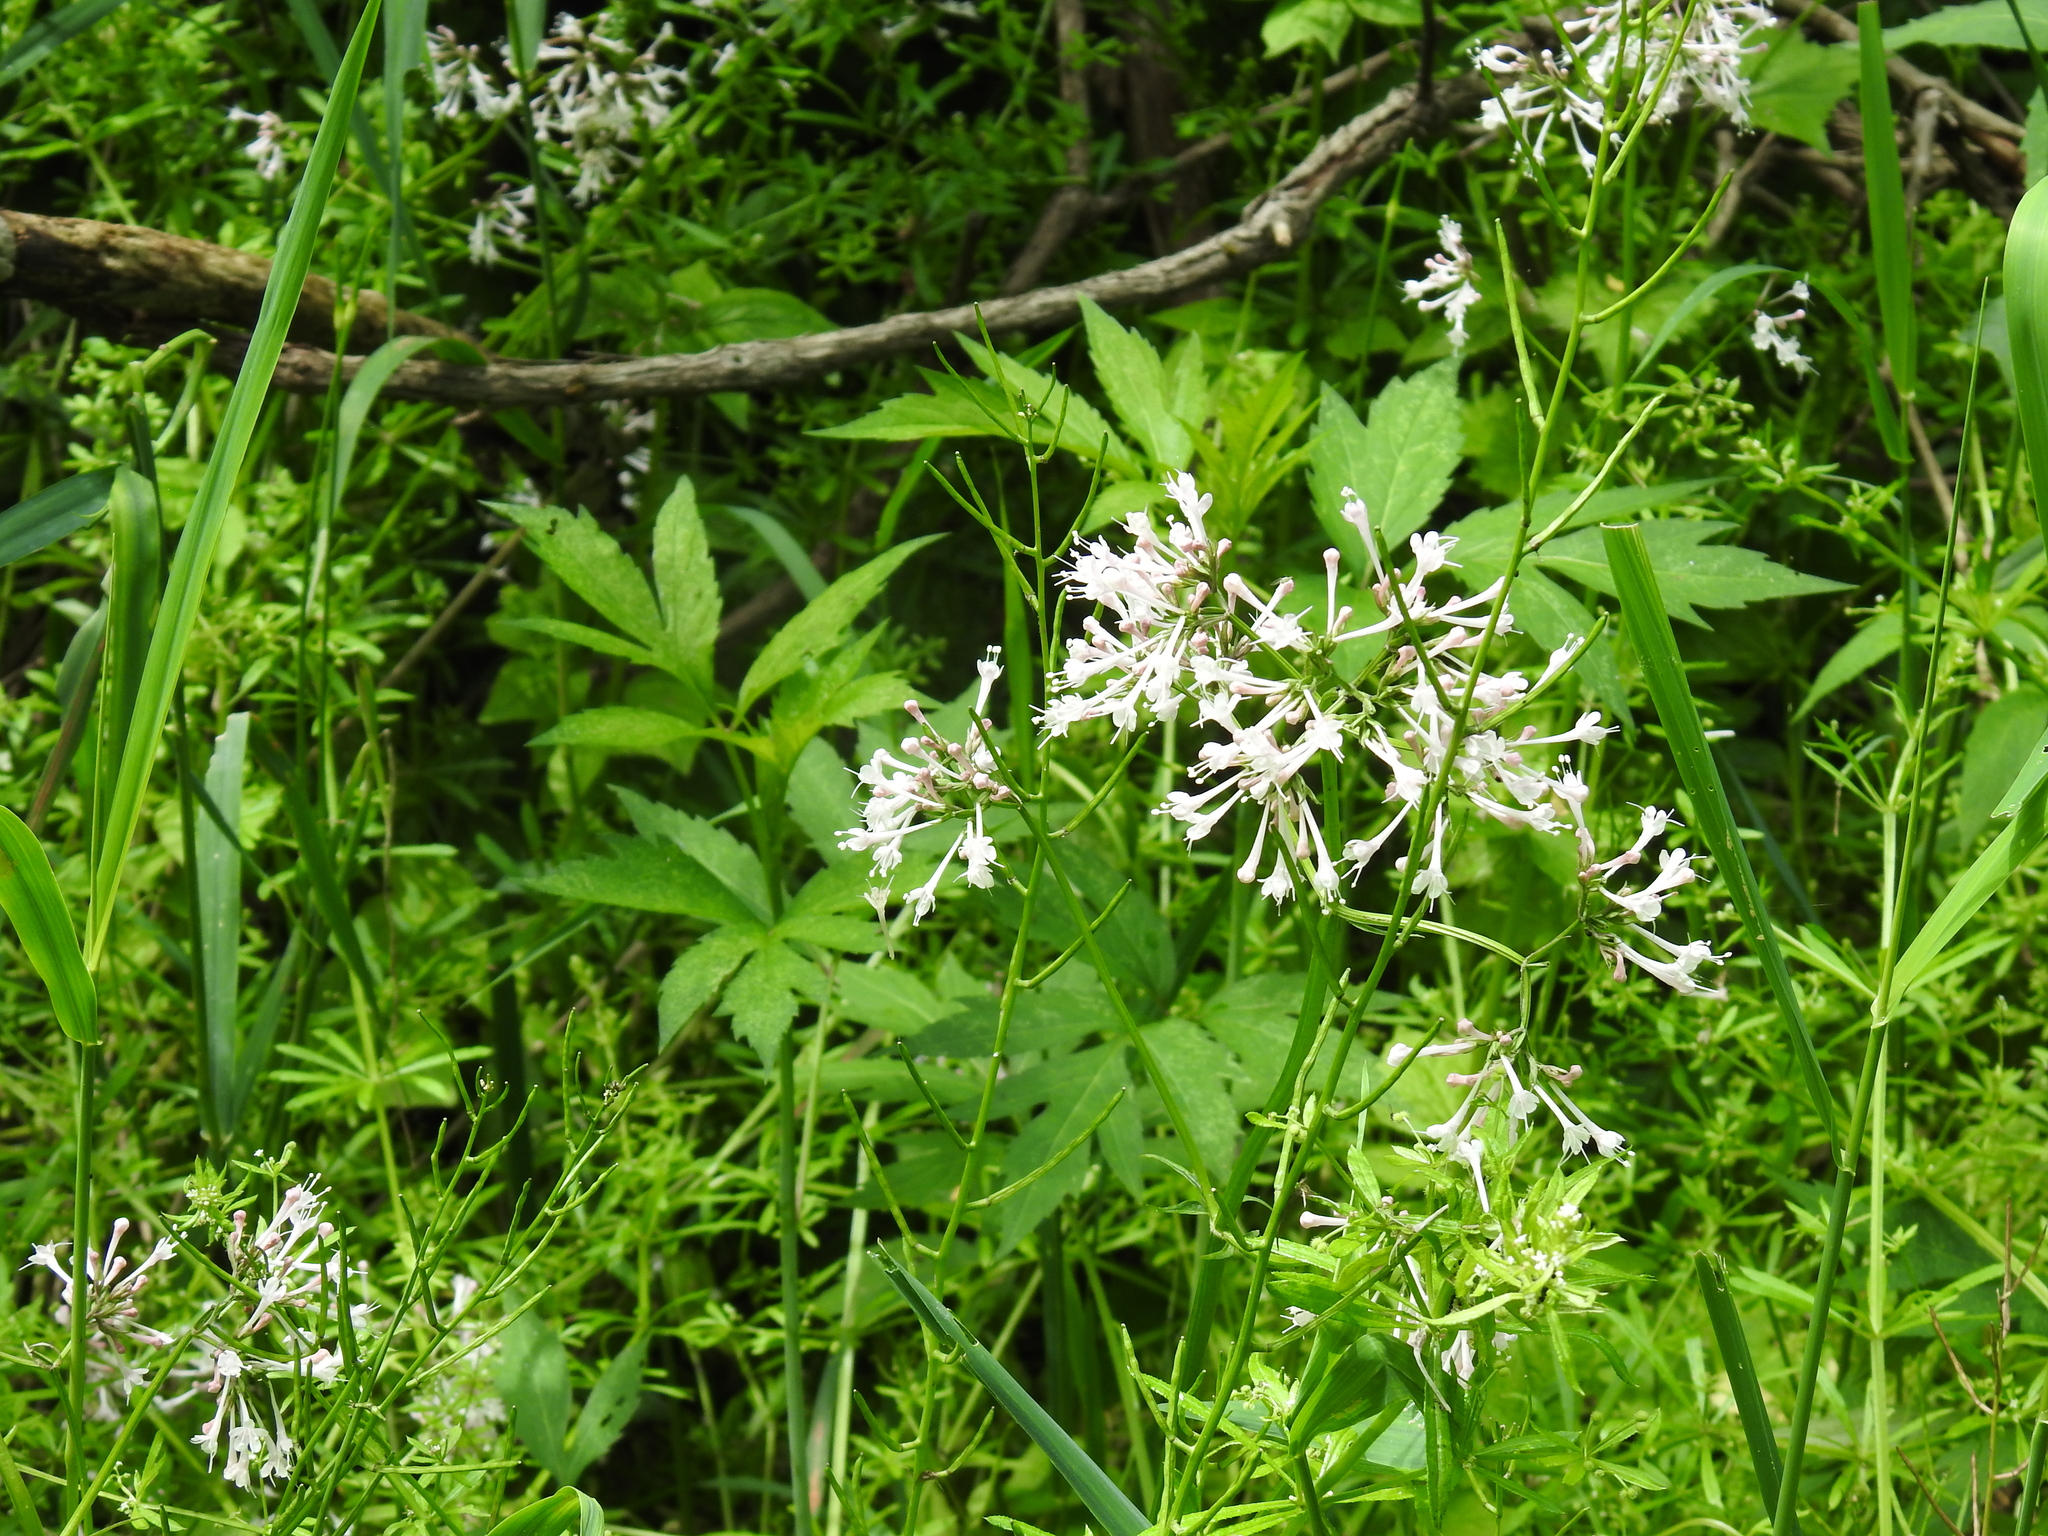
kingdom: Plantae
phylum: Tracheophyta
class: Magnoliopsida
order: Dipsacales
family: Caprifoliaceae
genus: Valeriana
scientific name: Valeriana pauciflora
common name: Long-tube valeriana
